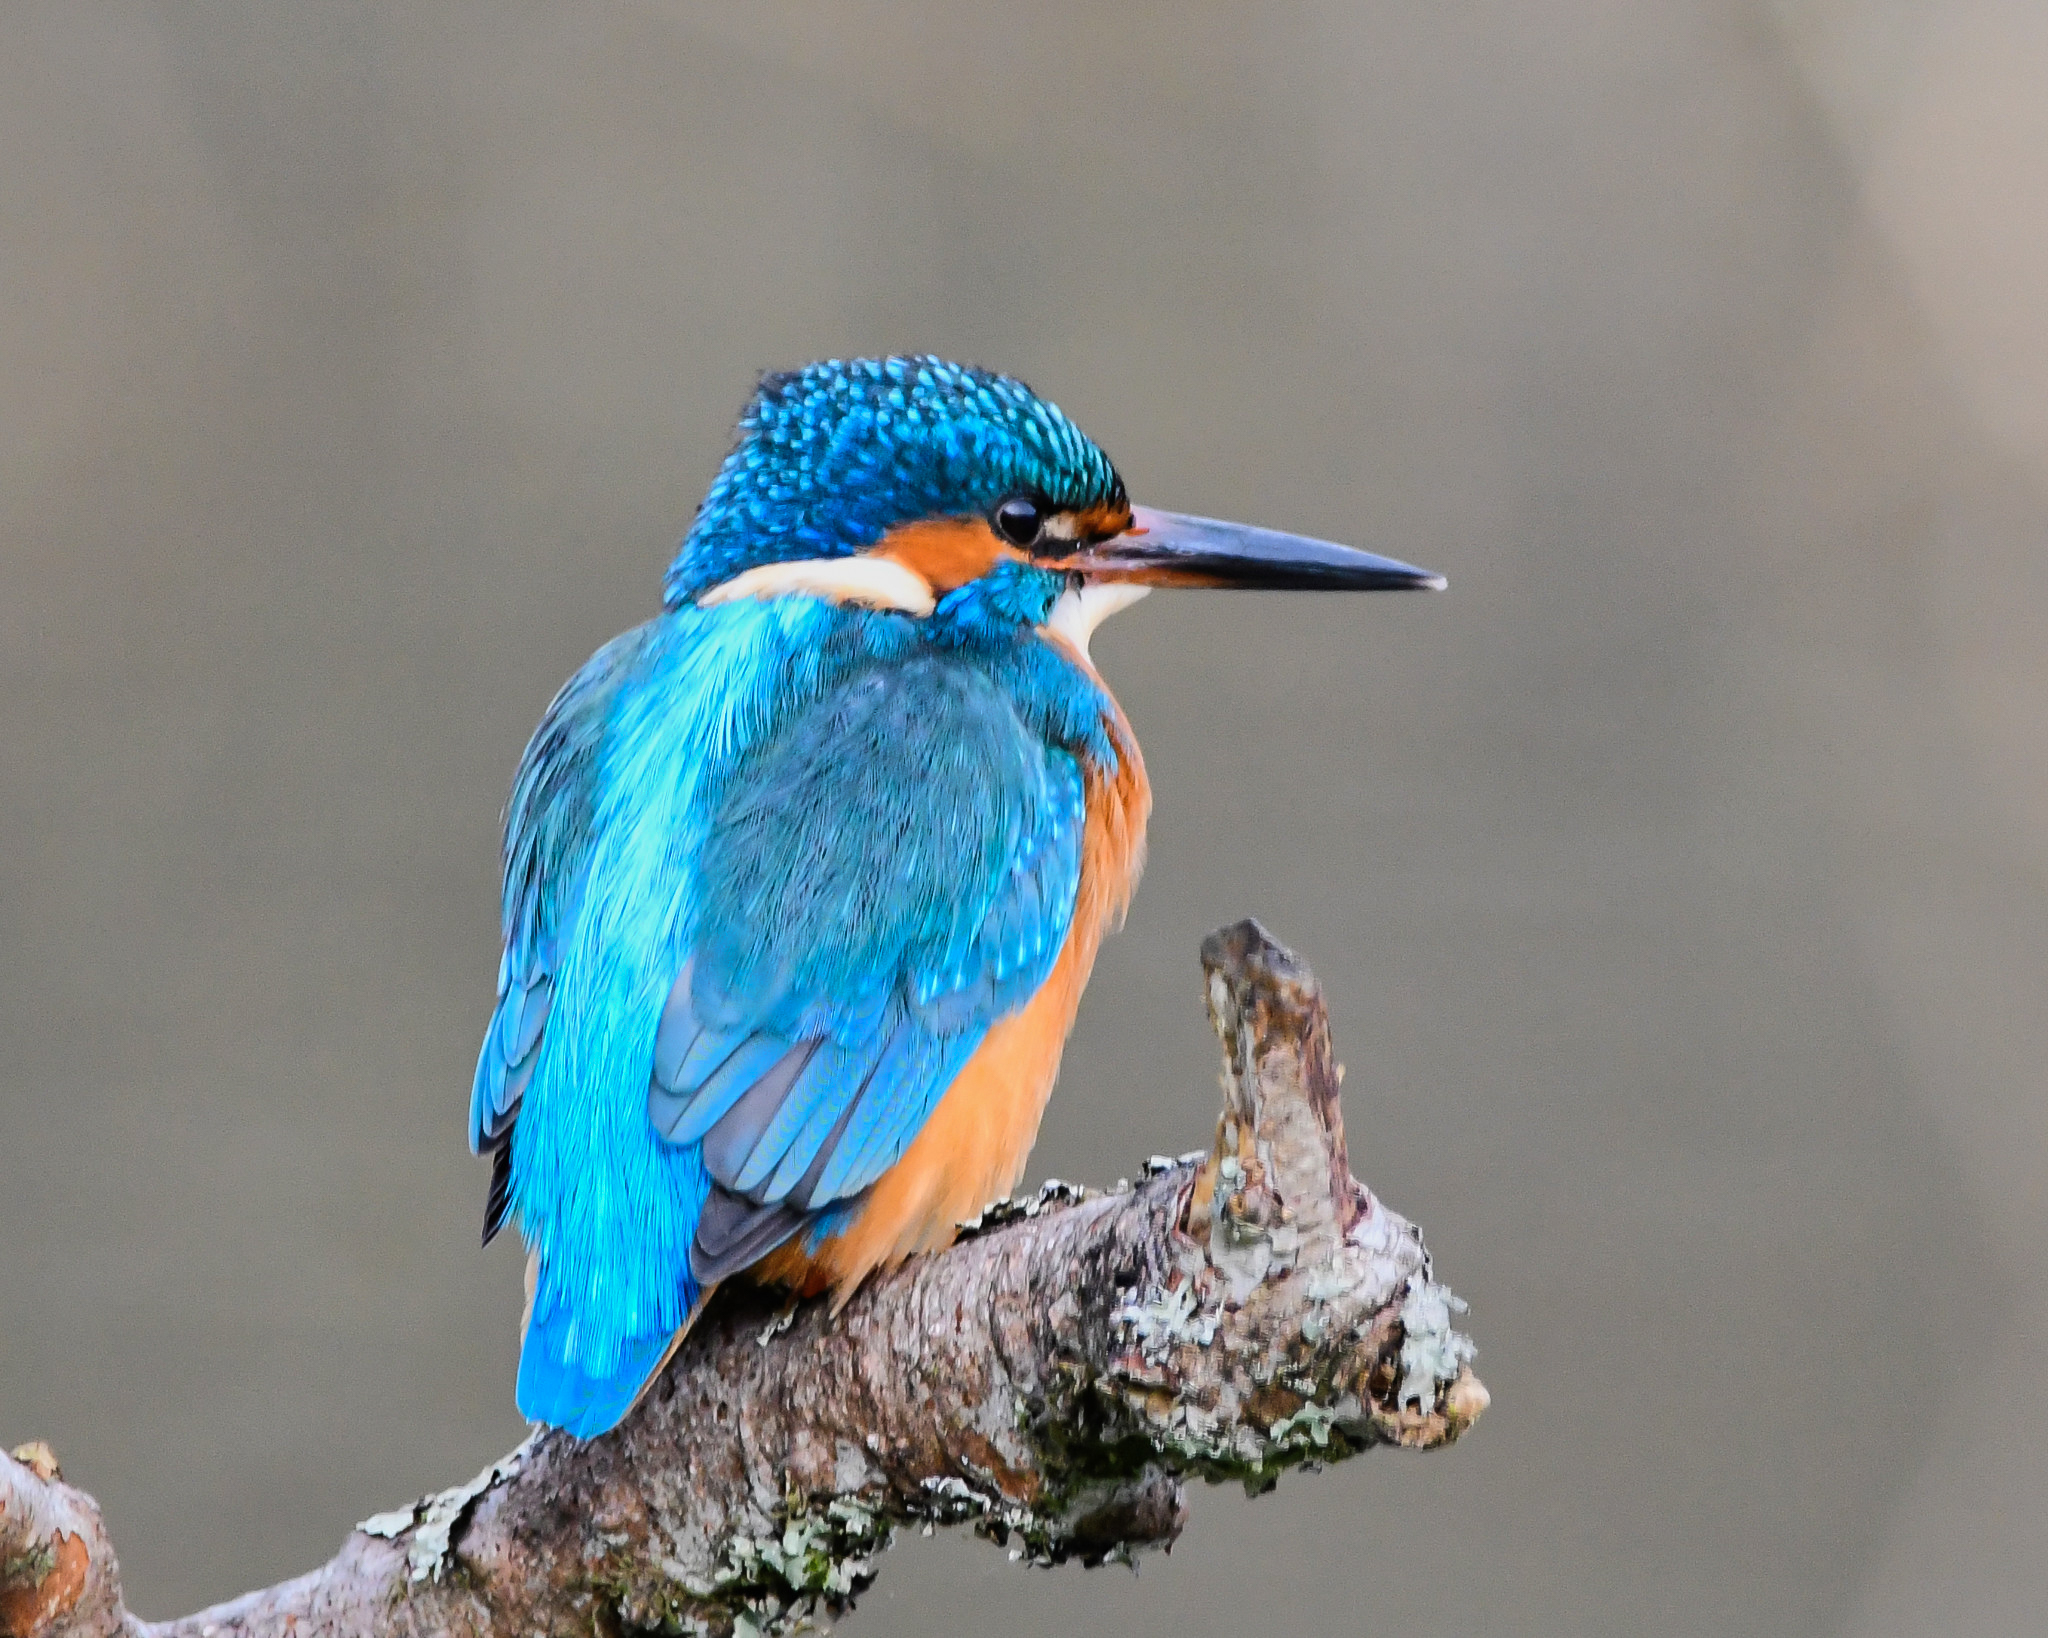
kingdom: Animalia
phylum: Chordata
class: Aves
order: Coraciiformes
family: Alcedinidae
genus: Alcedo
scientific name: Alcedo atthis
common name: Common kingfisher
